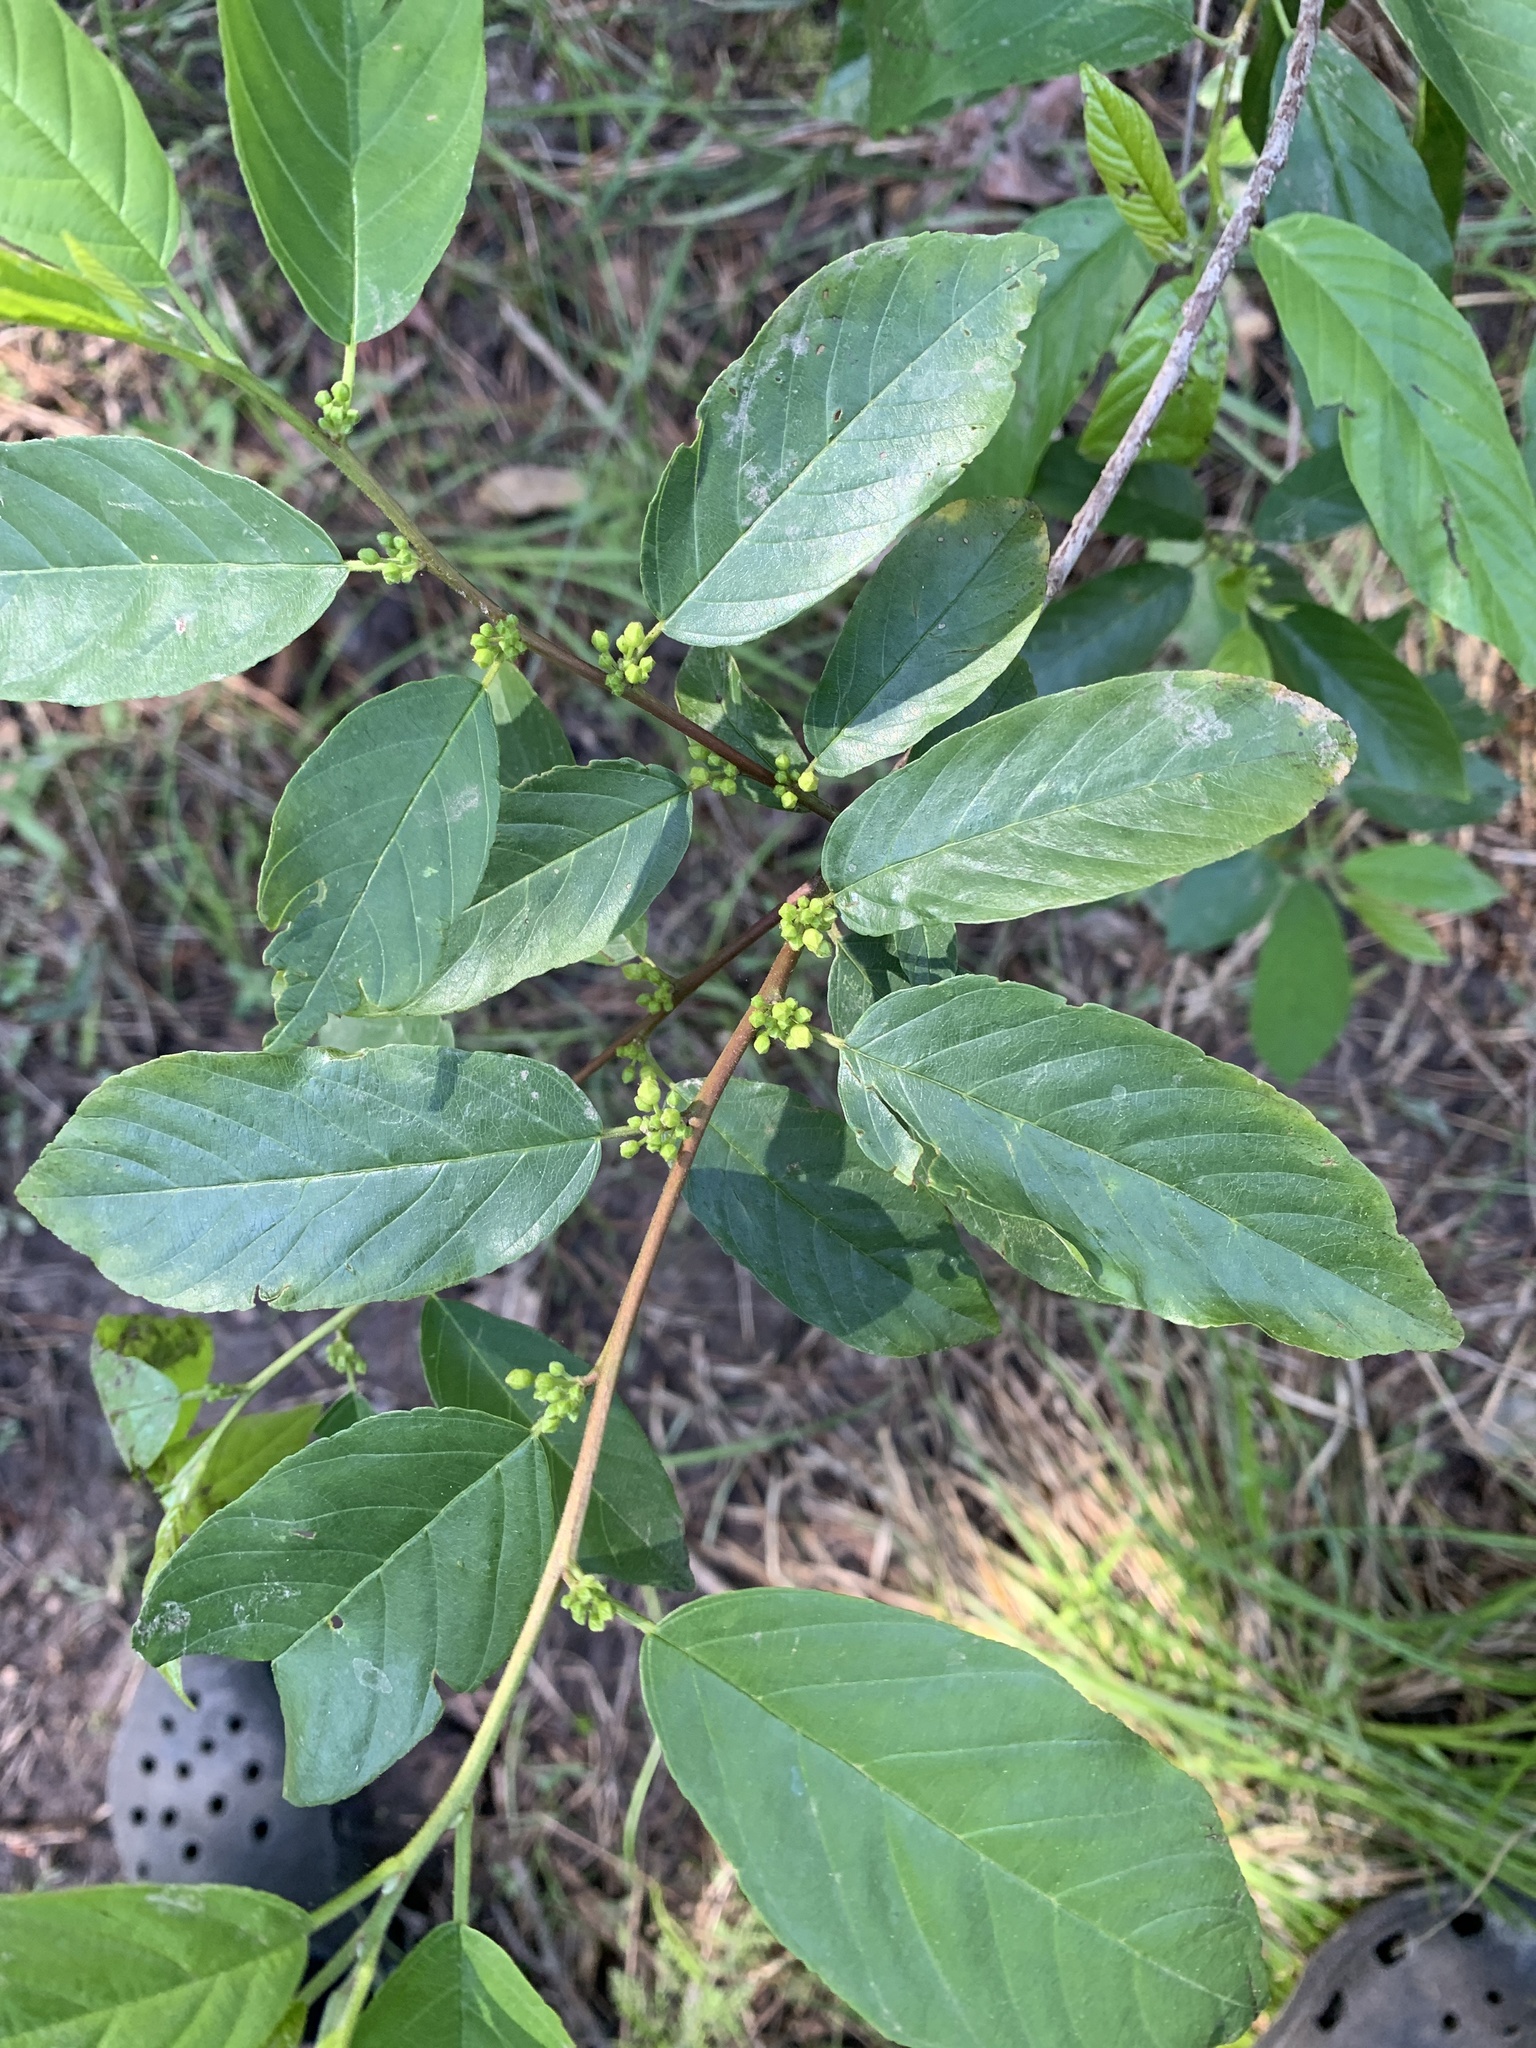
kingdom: Plantae
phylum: Tracheophyta
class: Magnoliopsida
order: Rosales
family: Rhamnaceae
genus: Frangula
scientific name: Frangula caroliniana
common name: Carolina buckthorn
